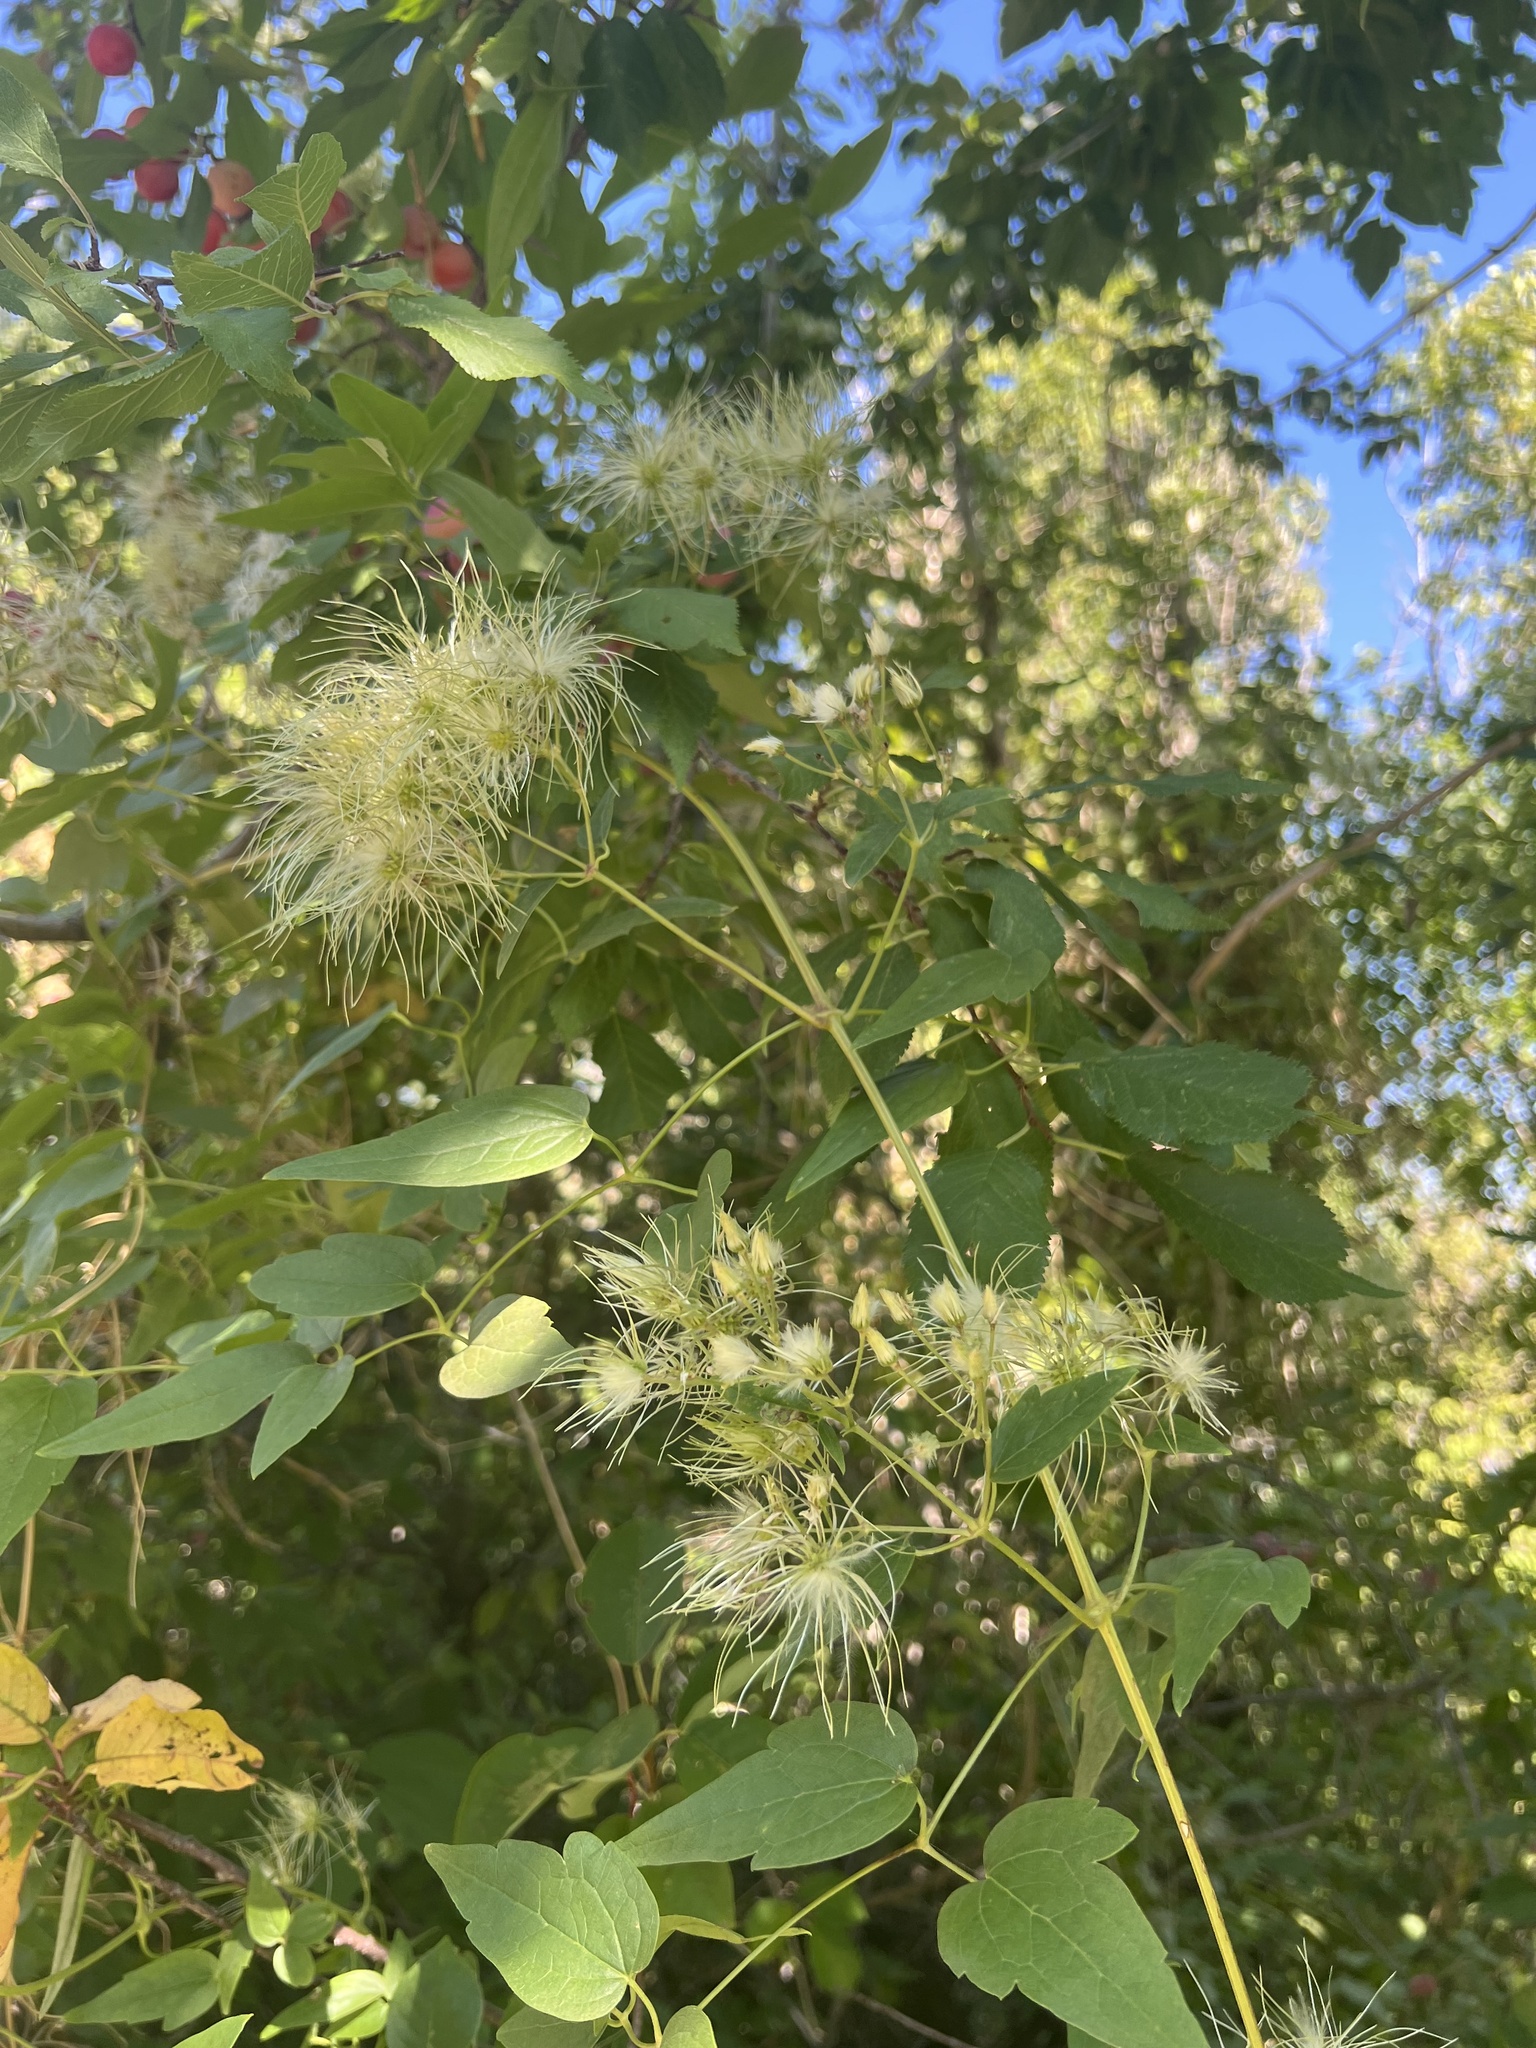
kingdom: Plantae
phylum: Tracheophyta
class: Magnoliopsida
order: Ranunculales
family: Ranunculaceae
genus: Clematis
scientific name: Clematis ligusticifolia
